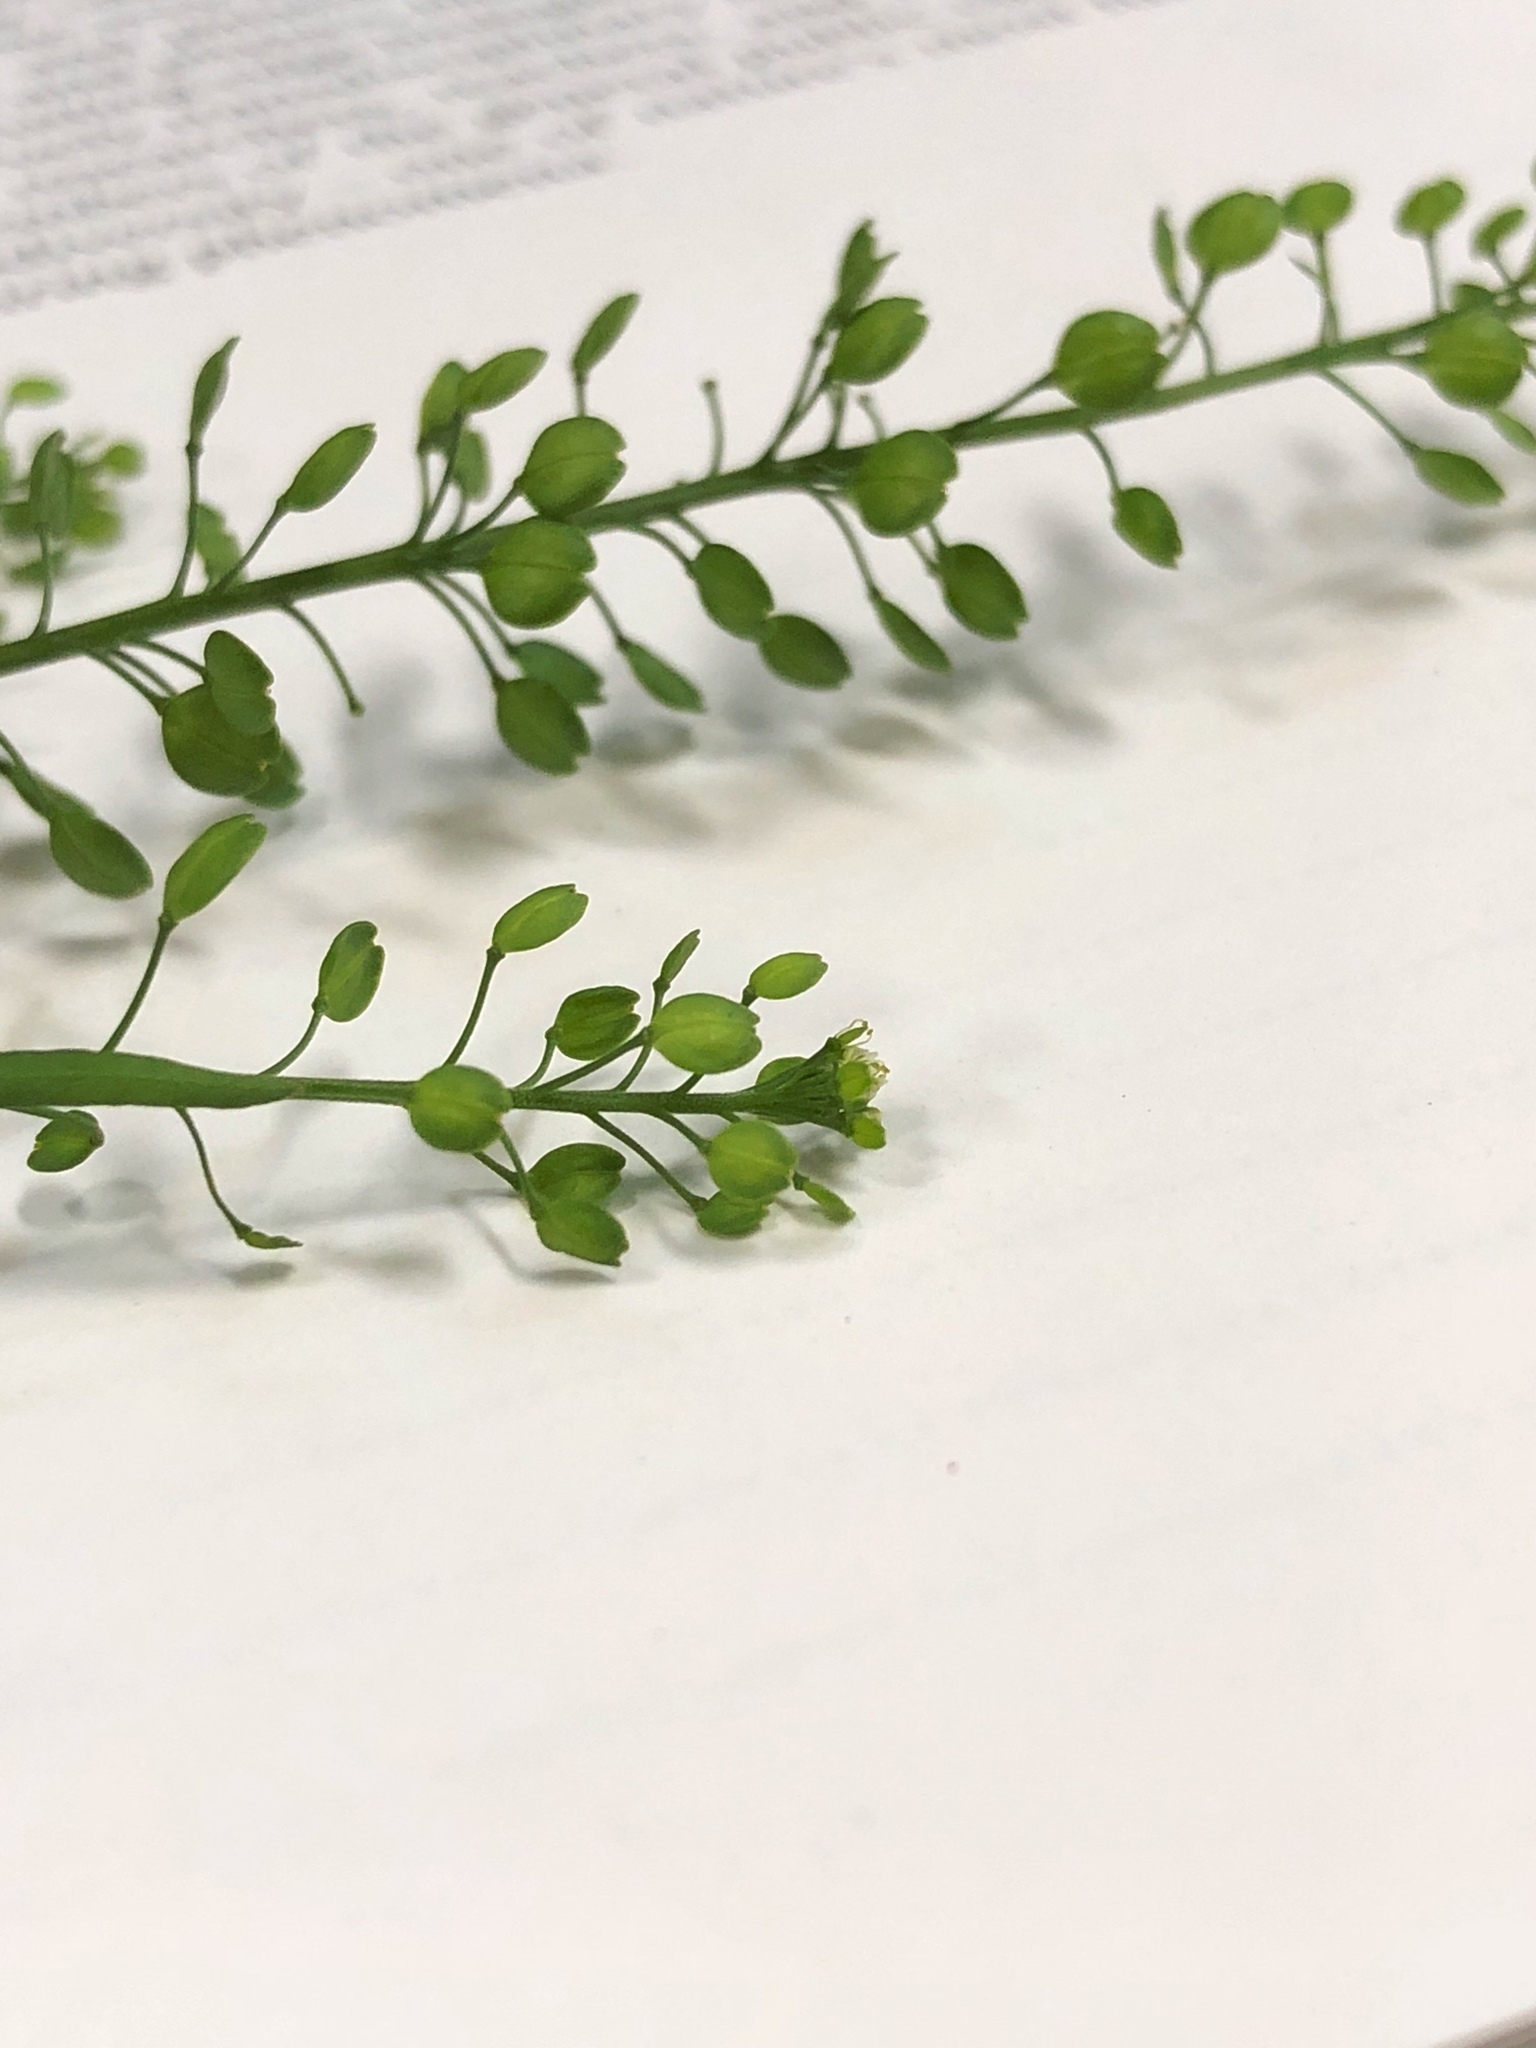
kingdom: Plantae
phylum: Tracheophyta
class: Magnoliopsida
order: Brassicales
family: Brassicaceae
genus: Lepidium
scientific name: Lepidium virginicum
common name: Least pepperwort
